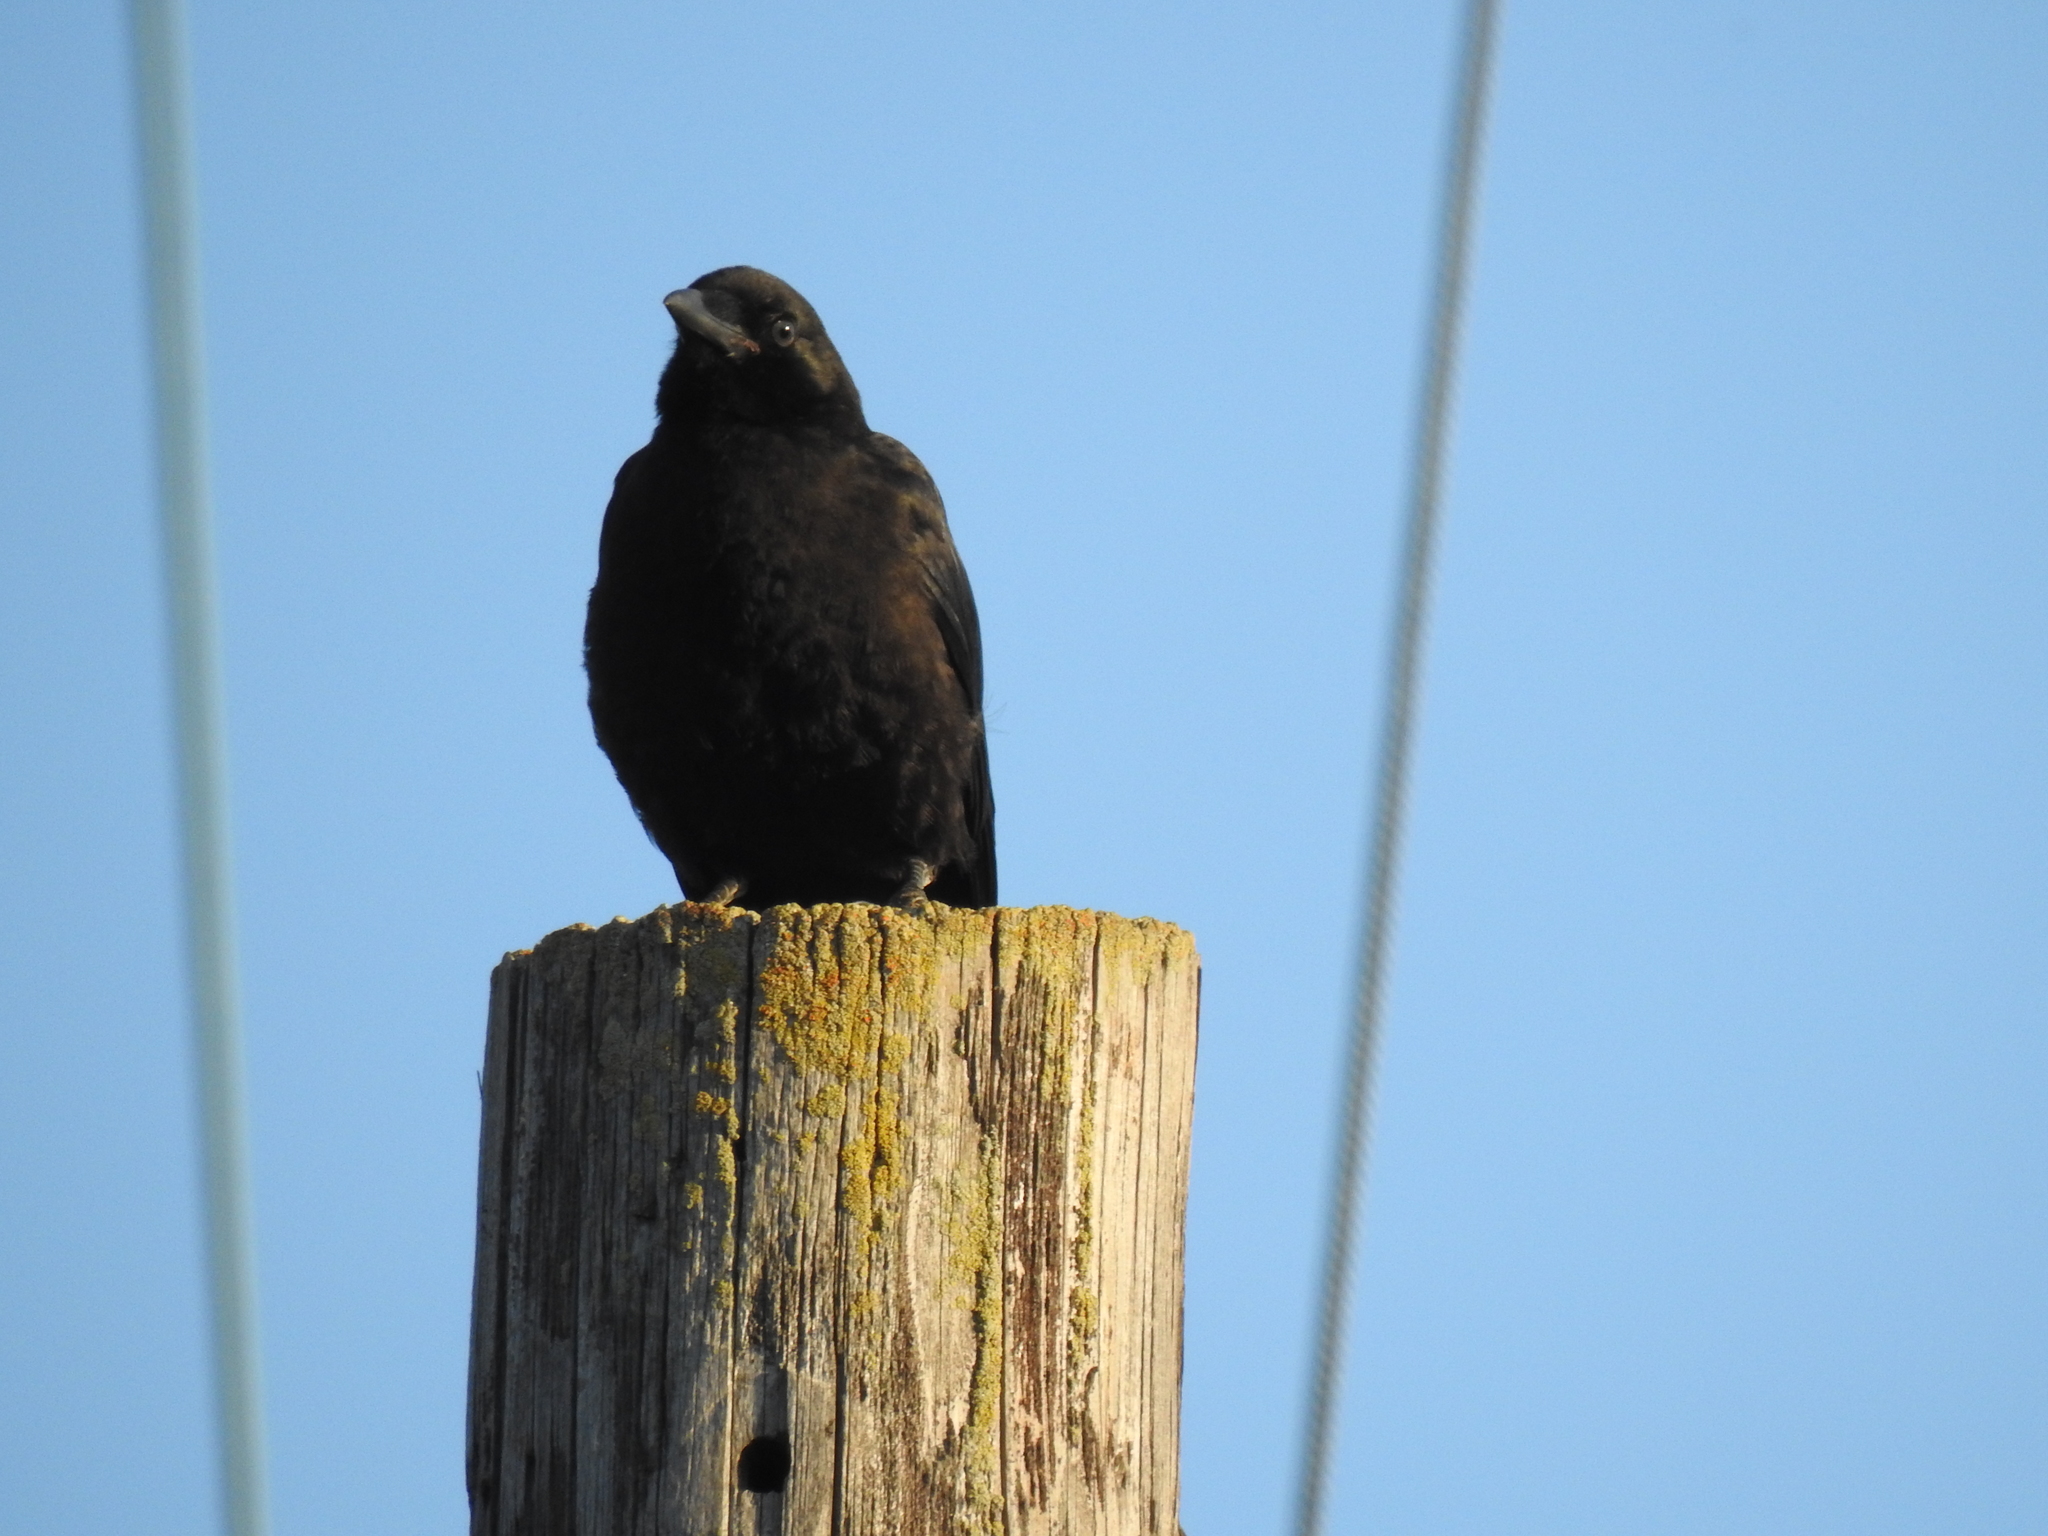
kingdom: Animalia
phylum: Chordata
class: Aves
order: Passeriformes
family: Corvidae
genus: Corvus
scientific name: Corvus brachyrhynchos
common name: American crow
